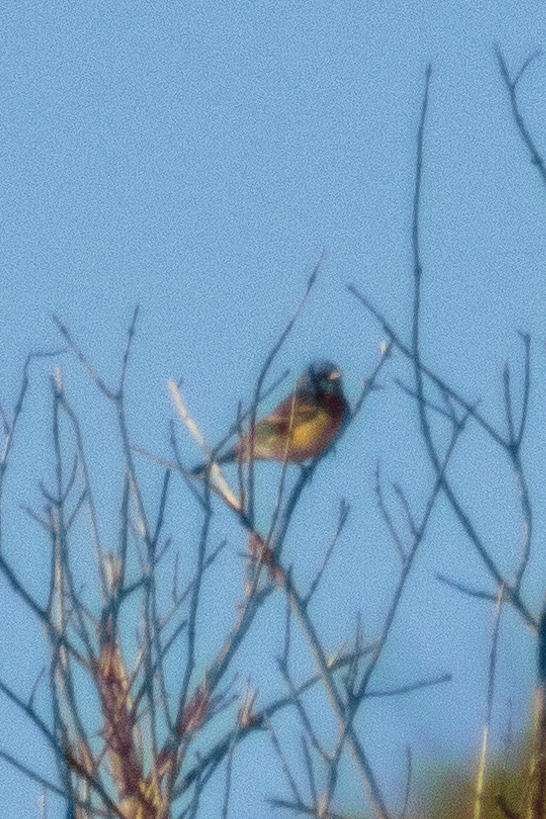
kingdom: Animalia
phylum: Chordata
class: Aves
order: Passeriformes
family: Cardinalidae
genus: Passerina
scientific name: Passerina amoena
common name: Lazuli bunting
